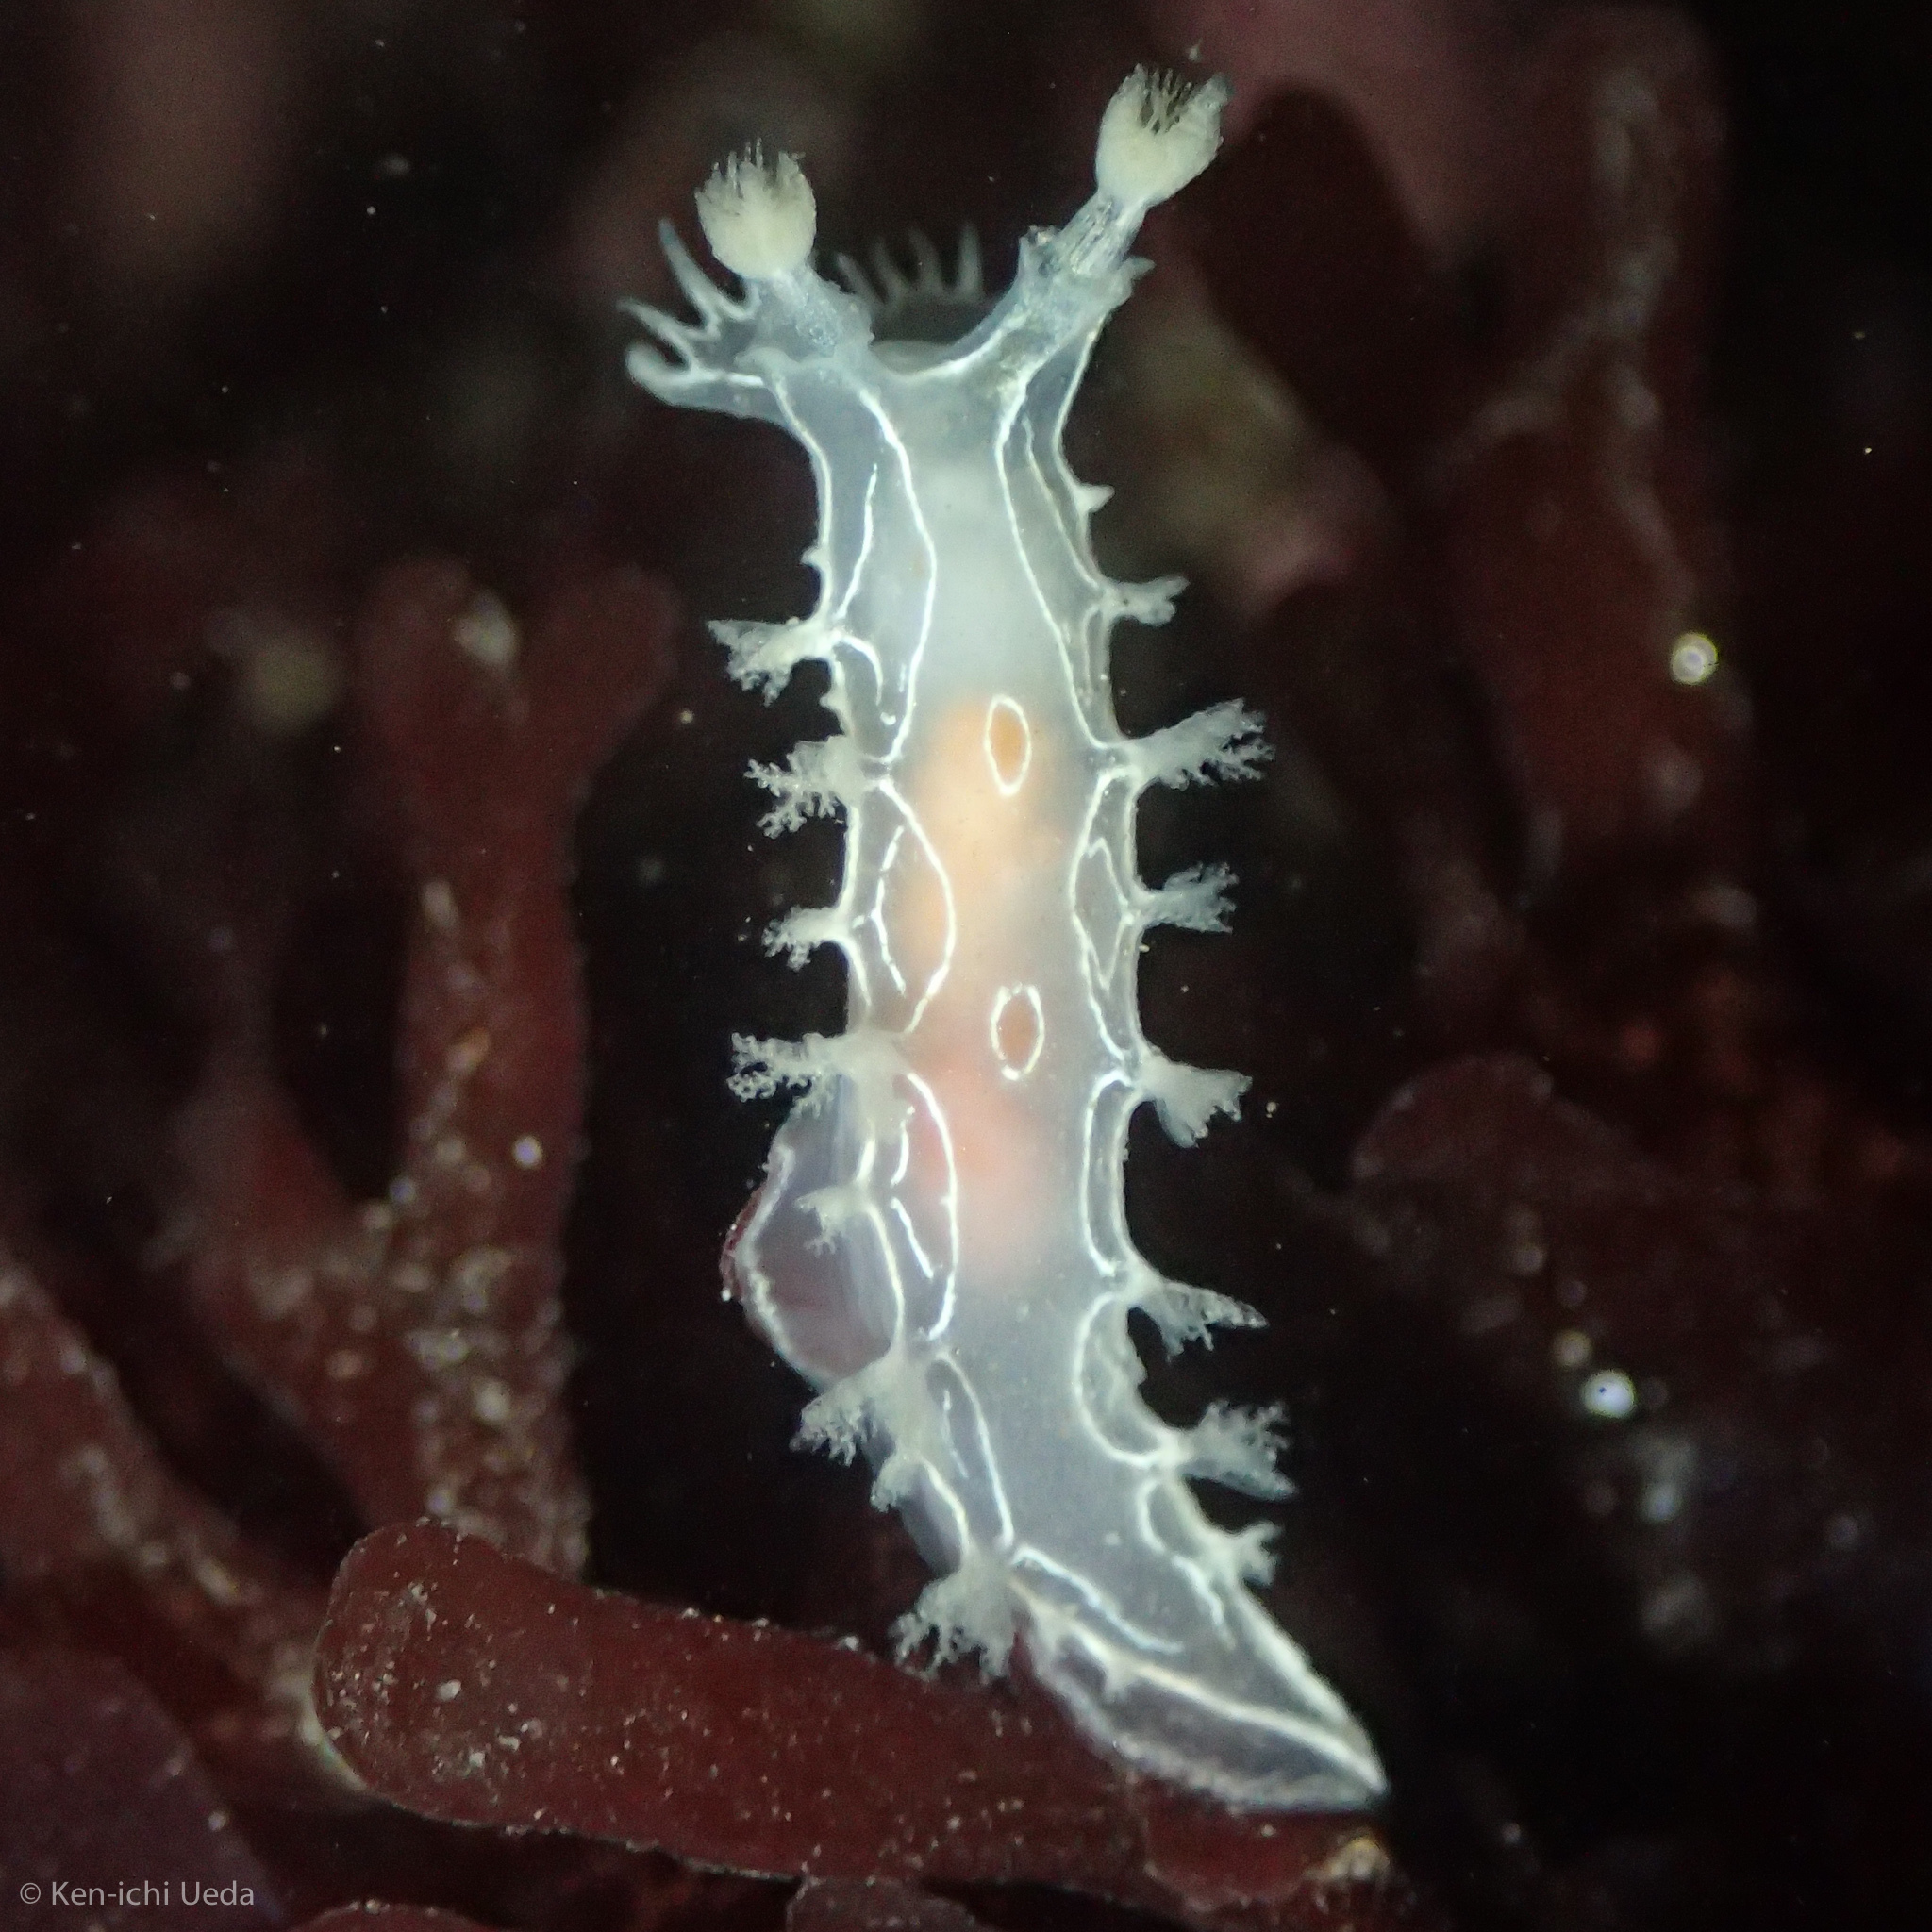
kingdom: Animalia
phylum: Mollusca
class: Gastropoda
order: Nudibranchia
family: Tritoniidae
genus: Tritonia
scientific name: Tritonia festiva
